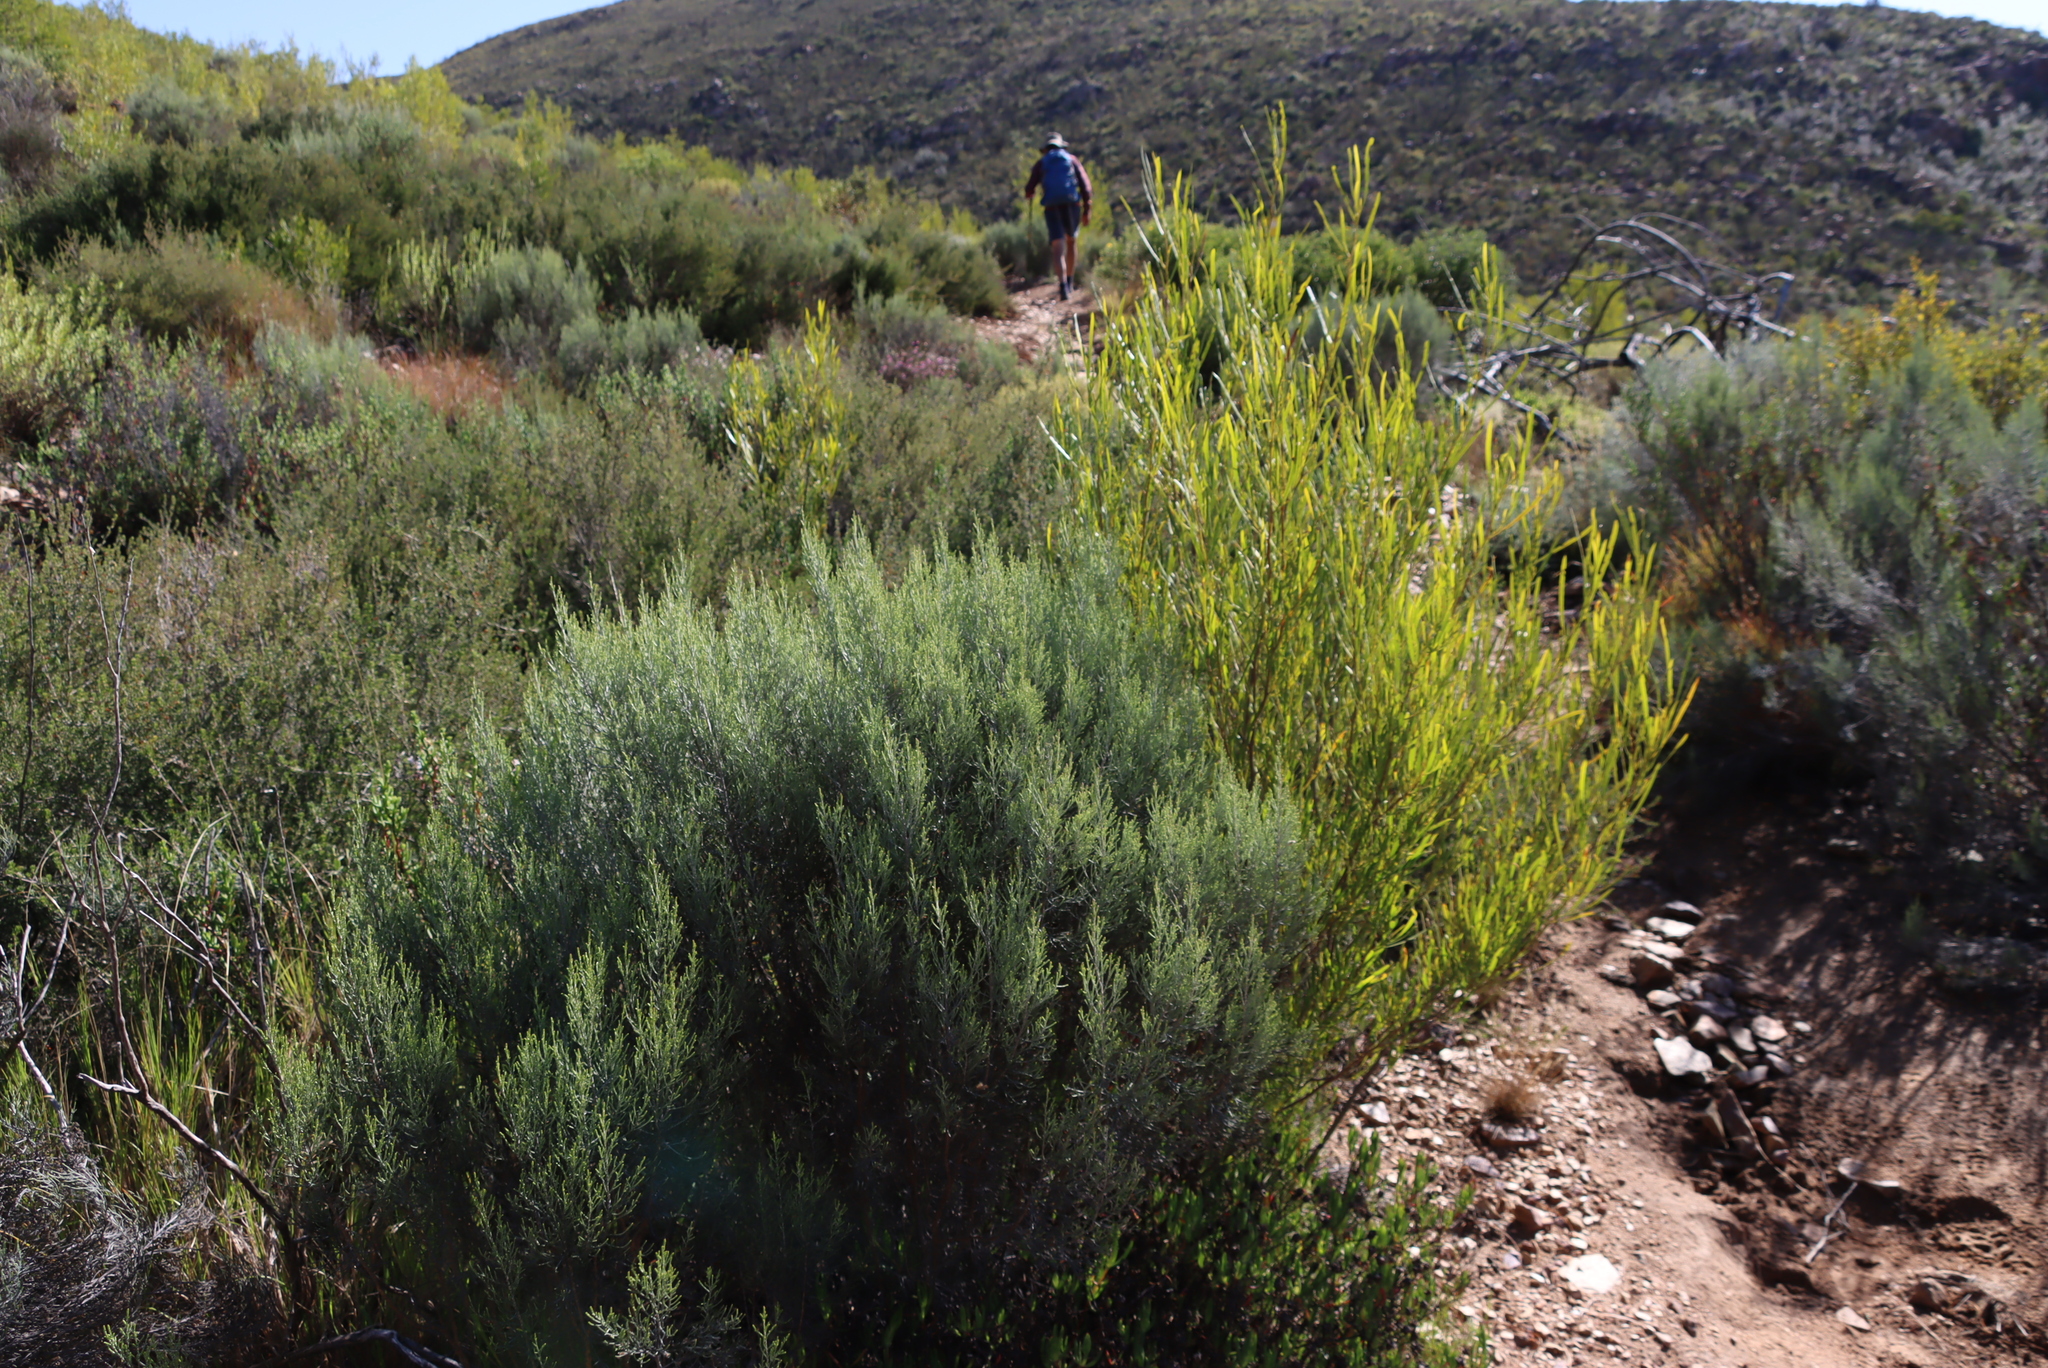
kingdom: Plantae
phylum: Tracheophyta
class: Magnoliopsida
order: Asterales
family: Asteraceae
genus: Dicerothamnus
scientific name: Dicerothamnus rhinocerotis
